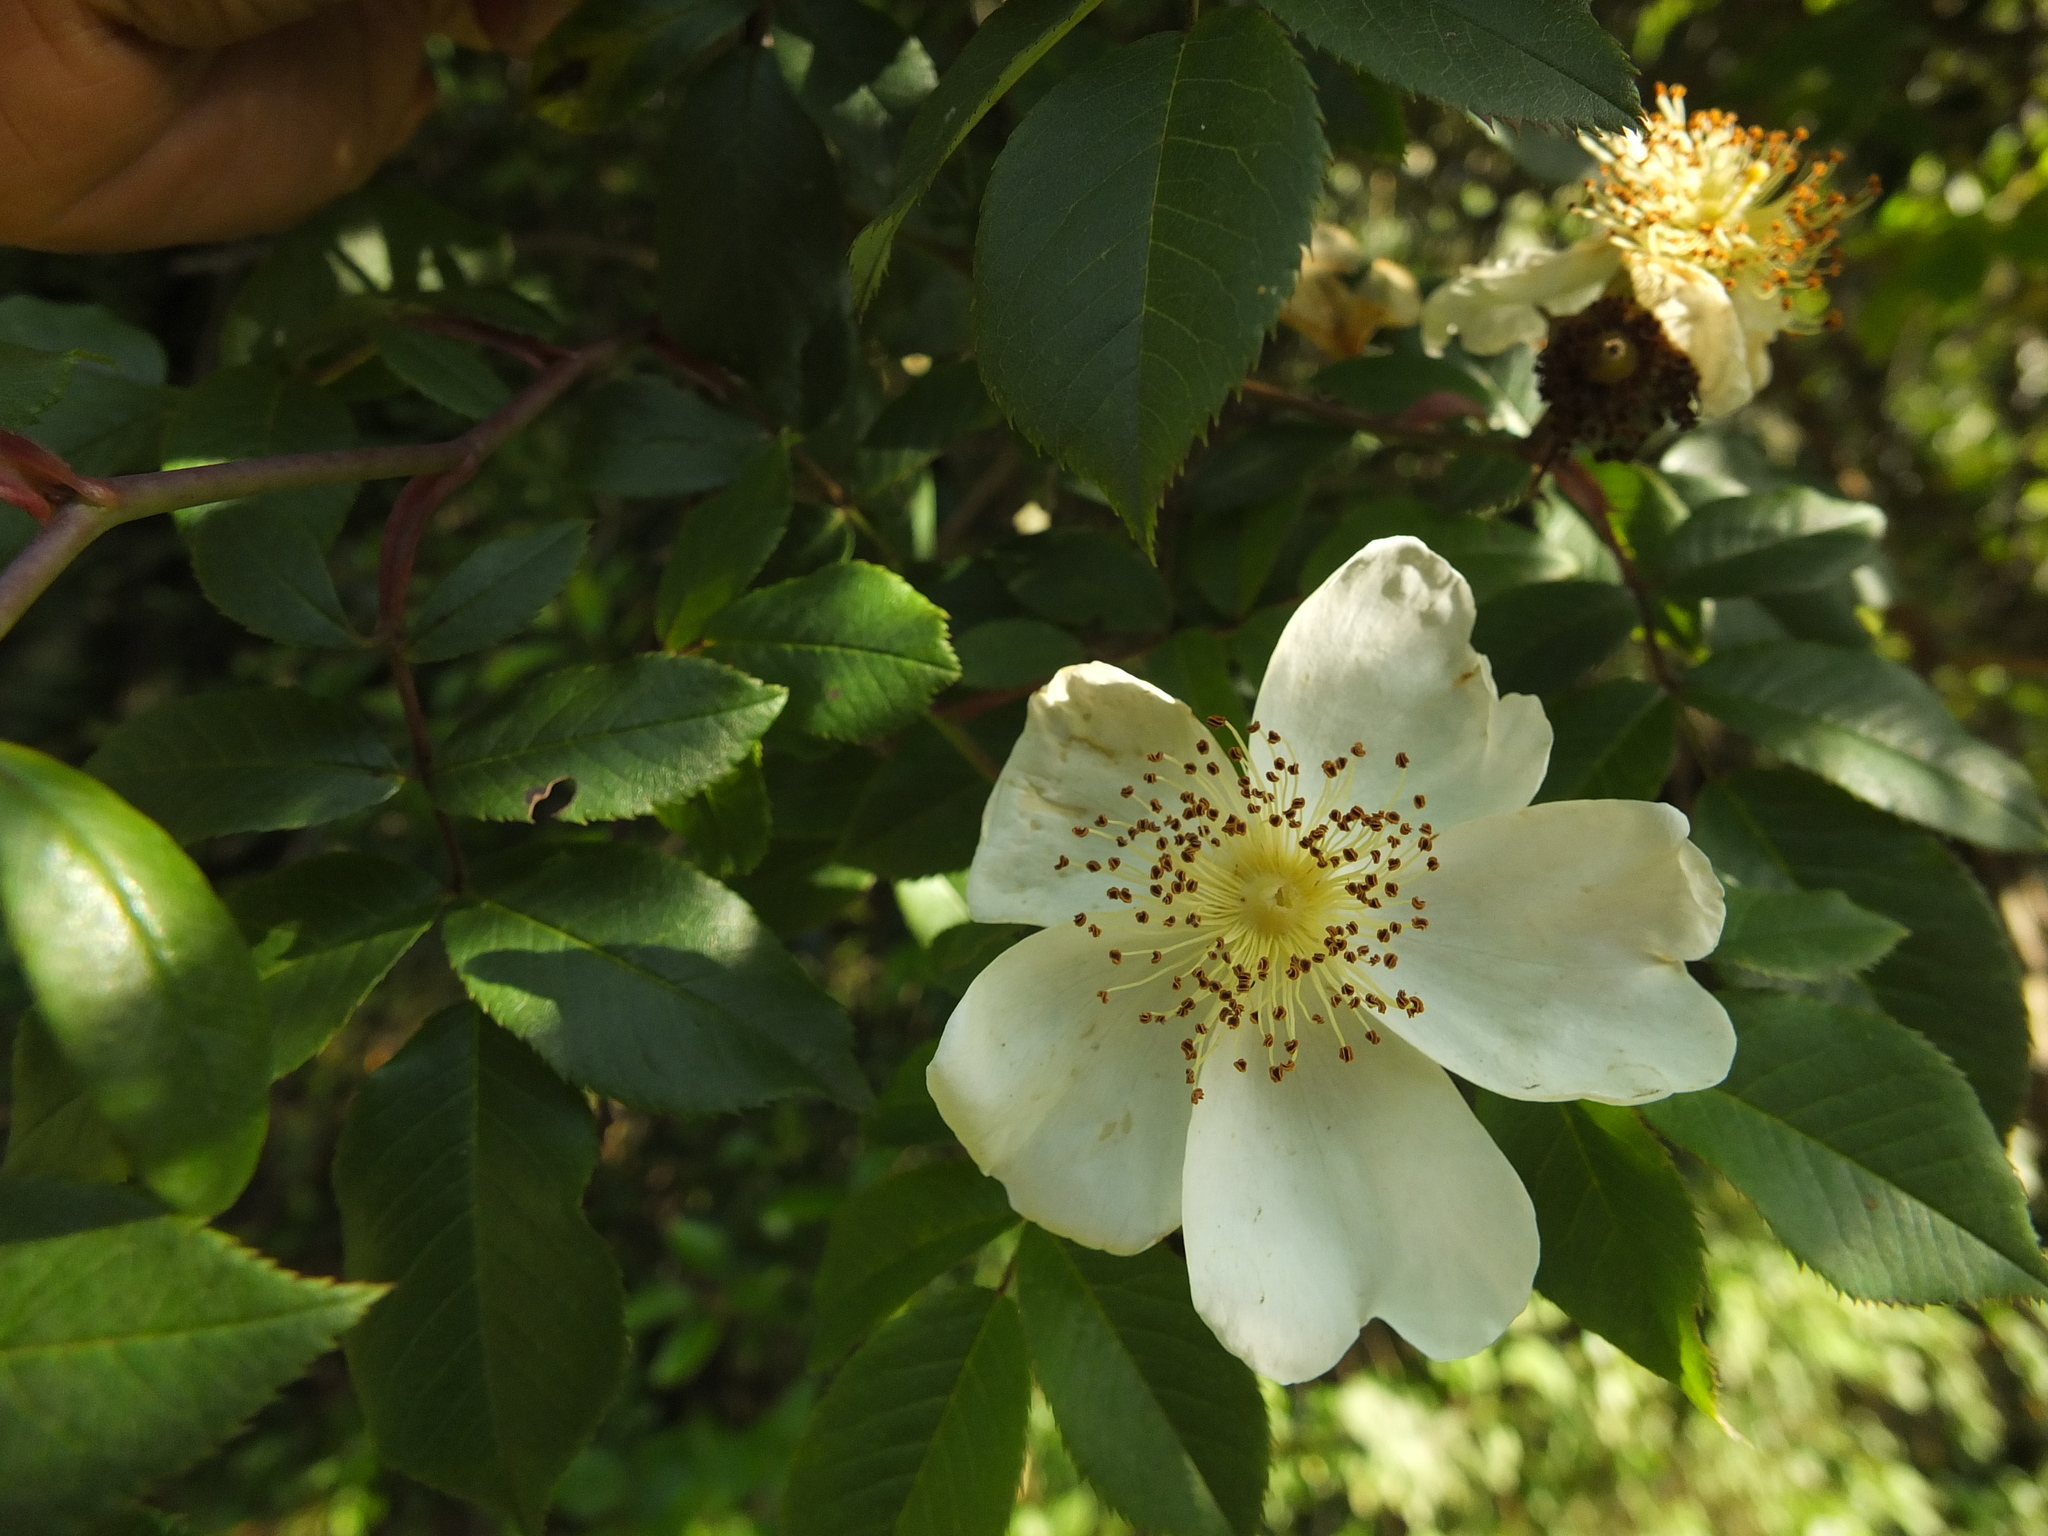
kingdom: Plantae
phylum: Tracheophyta
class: Magnoliopsida
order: Rosales
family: Rosaceae
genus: Rosa
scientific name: Rosa leschenaultiana
